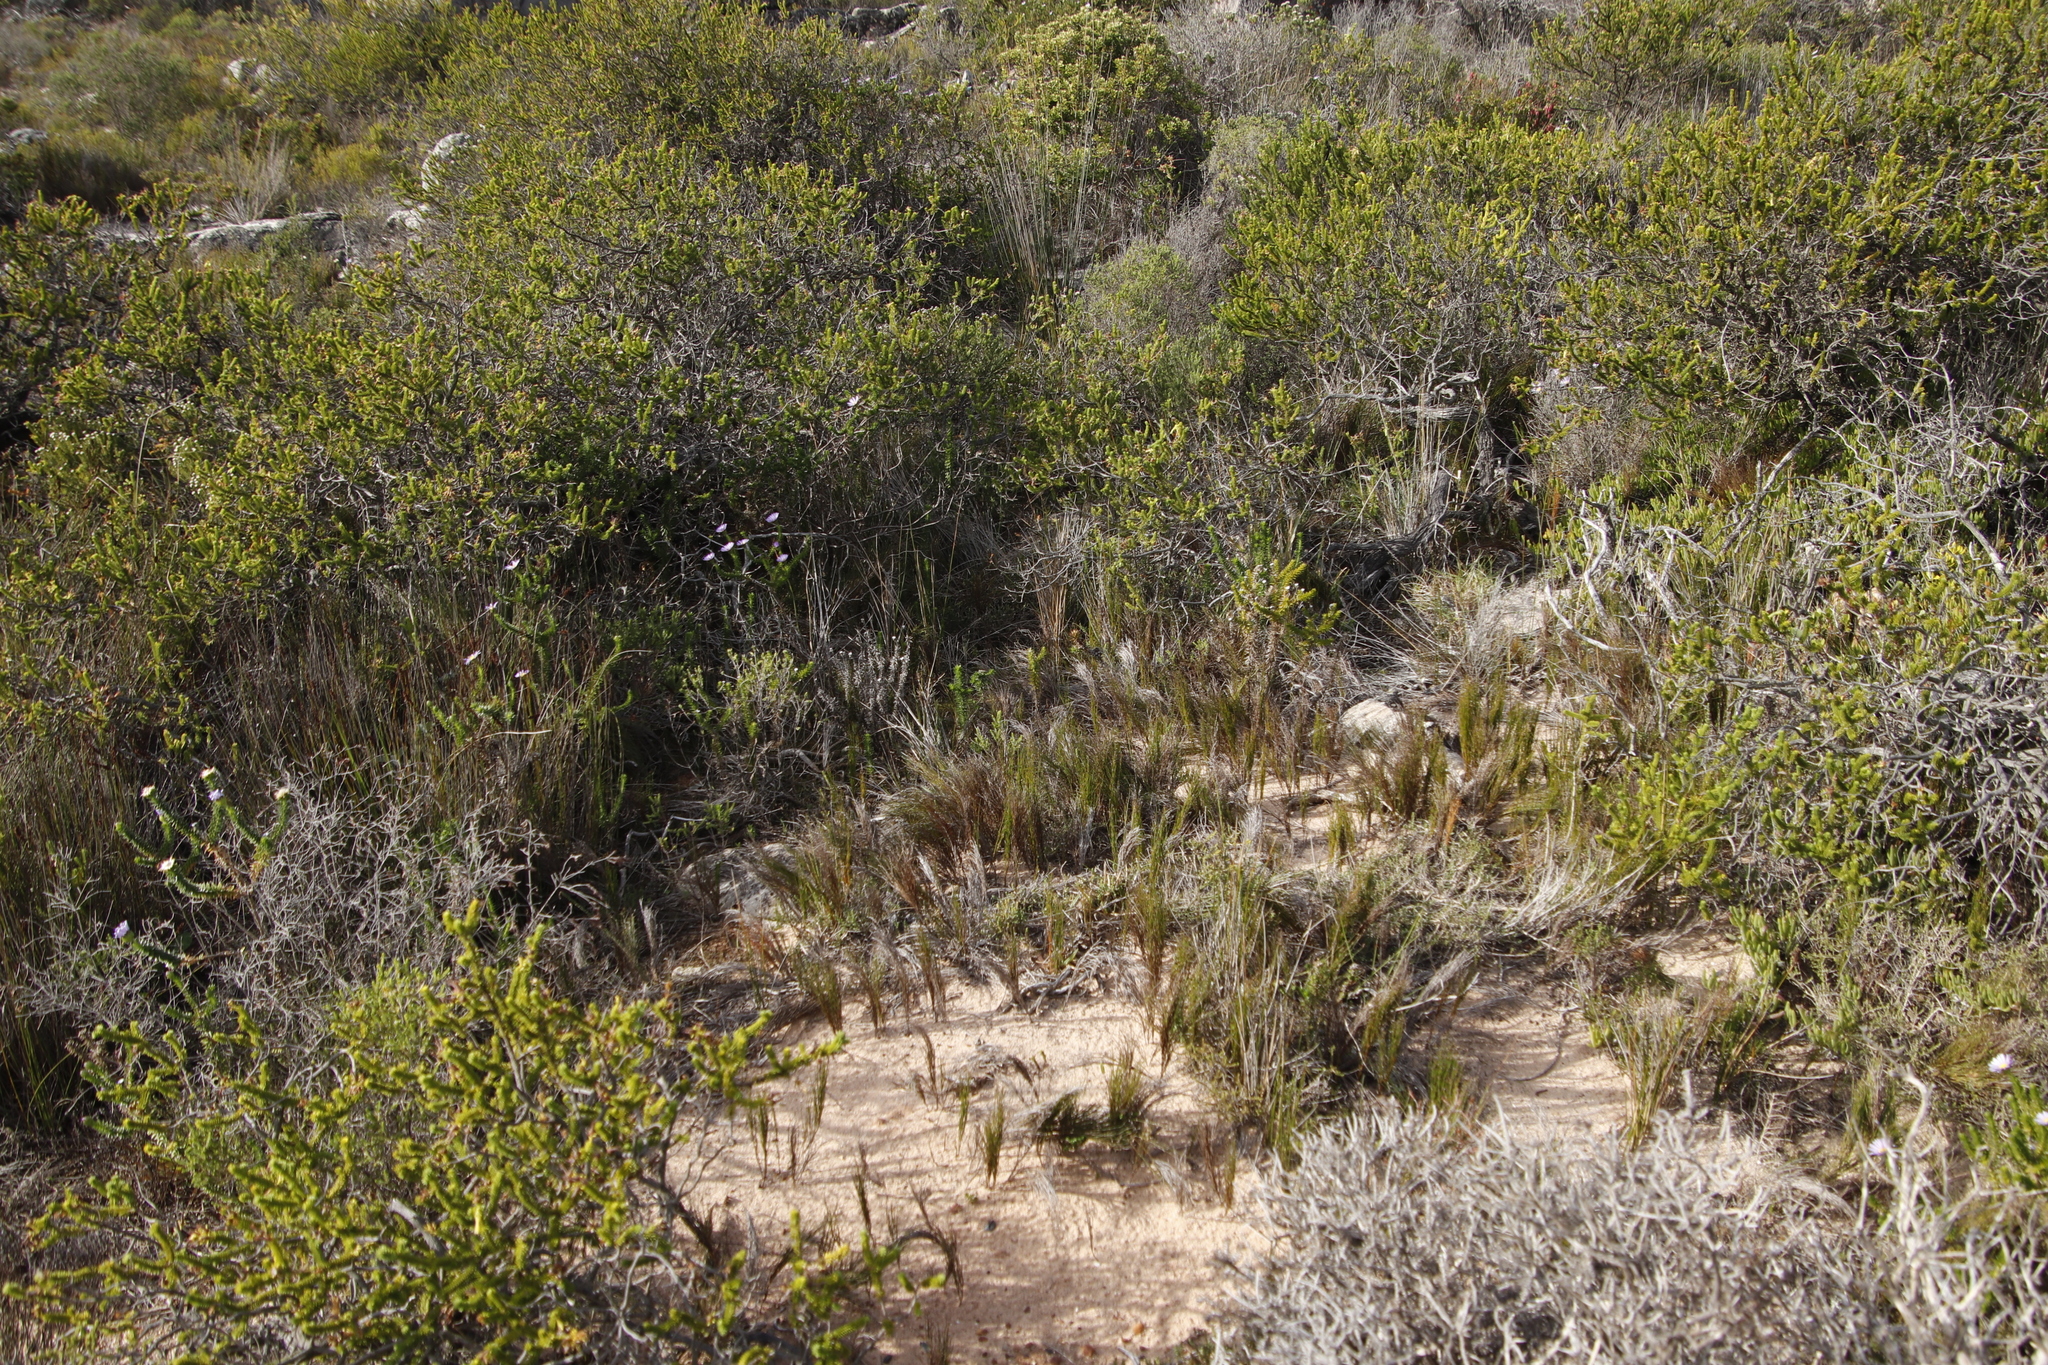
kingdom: Plantae
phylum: Tracheophyta
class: Liliopsida
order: Poales
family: Restionaceae
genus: Restio
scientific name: Restio eleocharis
